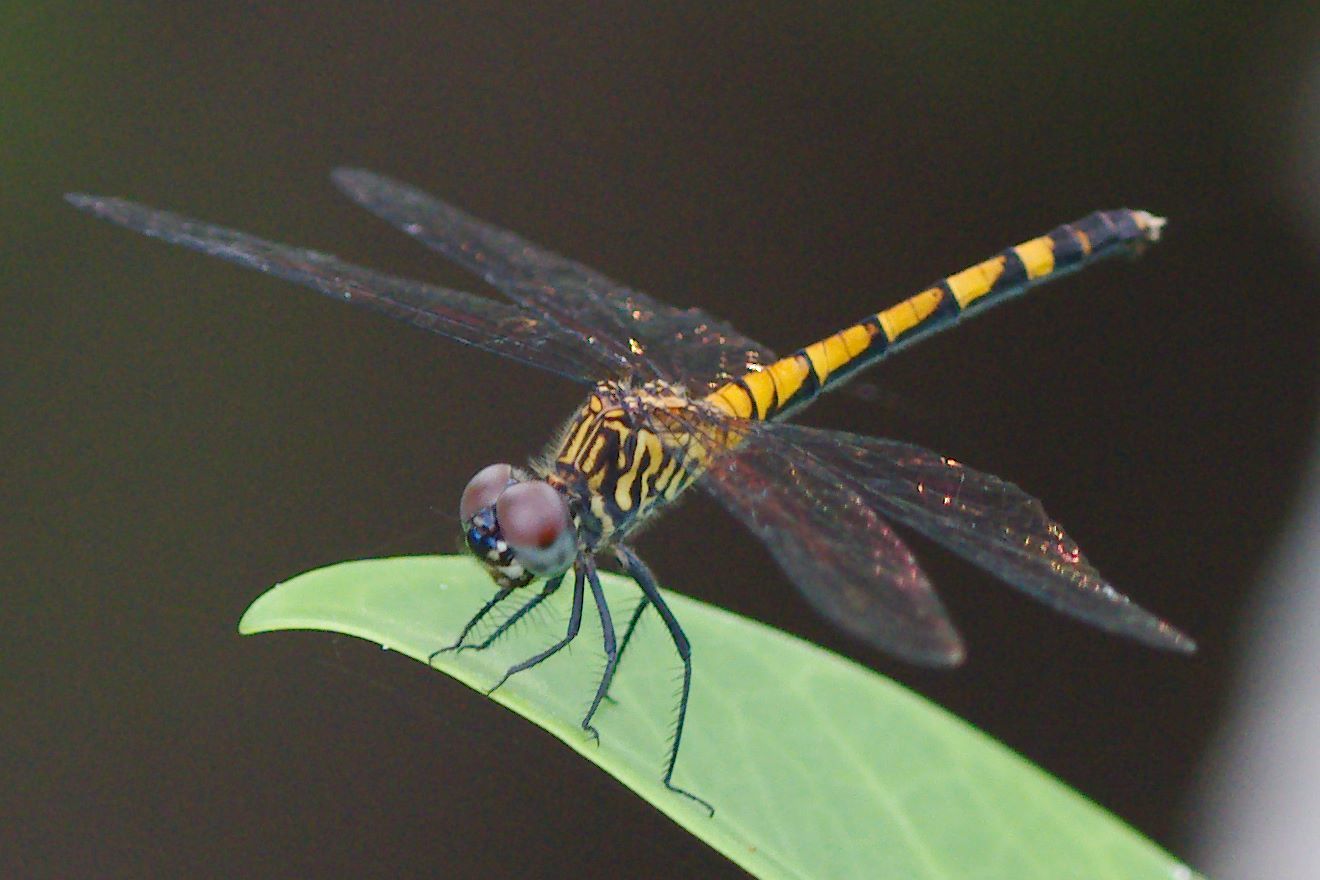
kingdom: Animalia
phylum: Arthropoda
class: Insecta
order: Odonata
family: Libellulidae
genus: Erythrodiplax
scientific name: Erythrodiplax berenice
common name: Seaside dragonlet
